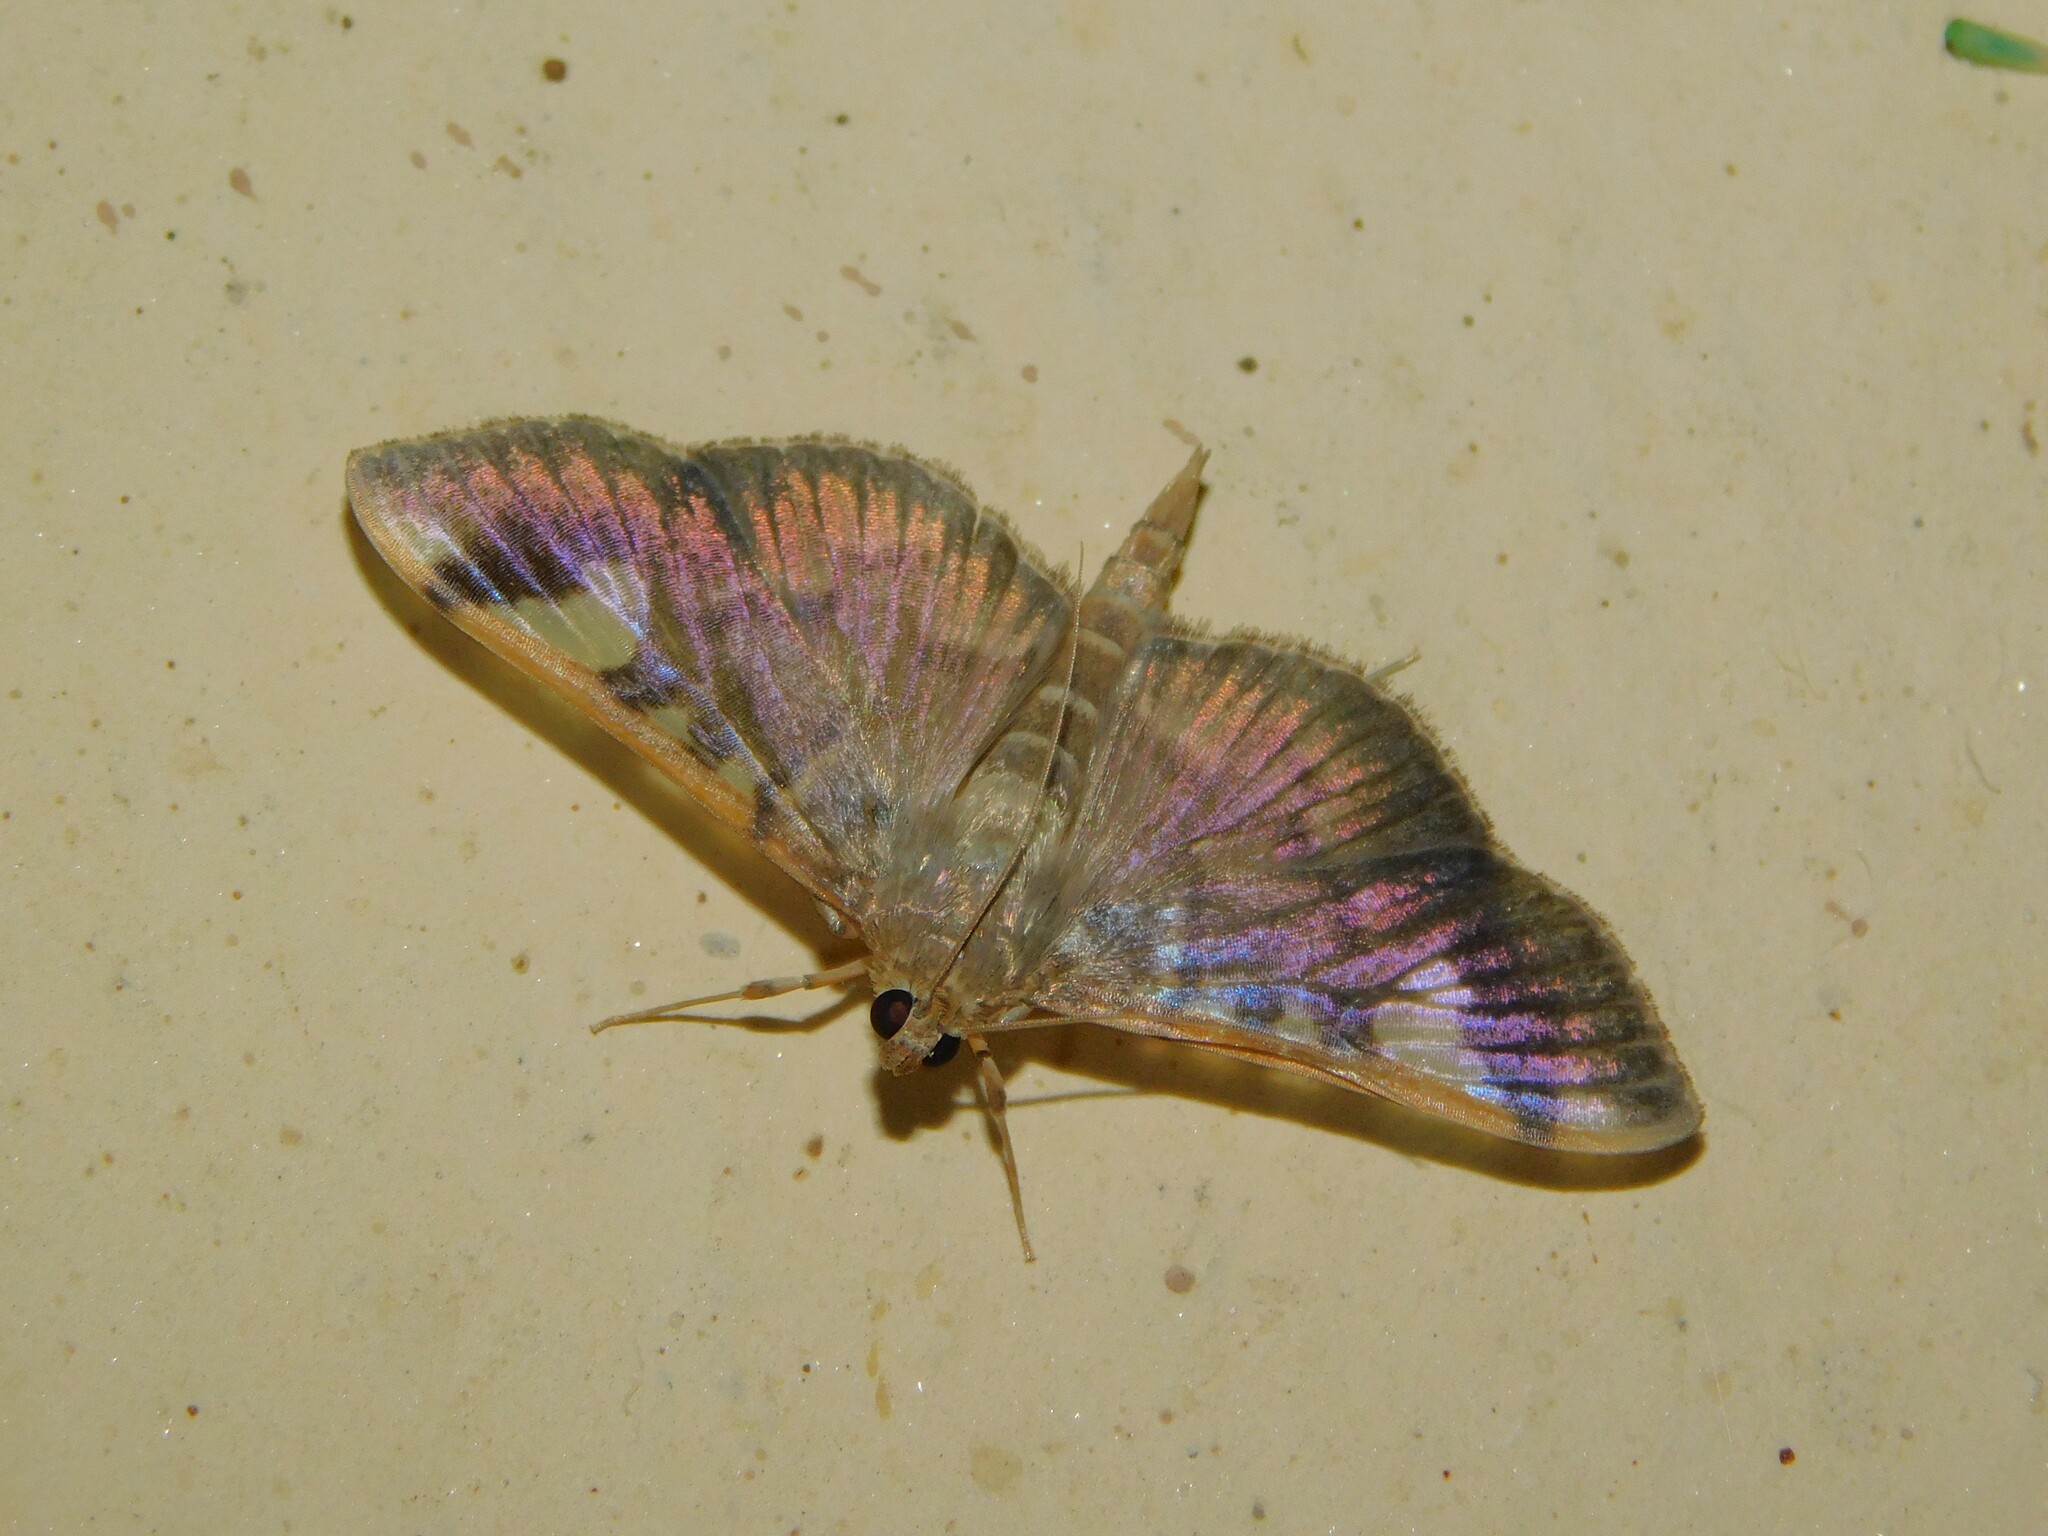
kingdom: Animalia
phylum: Arthropoda
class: Insecta
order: Lepidoptera
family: Crambidae
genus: Prophantis
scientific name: Prophantis longicornalis
